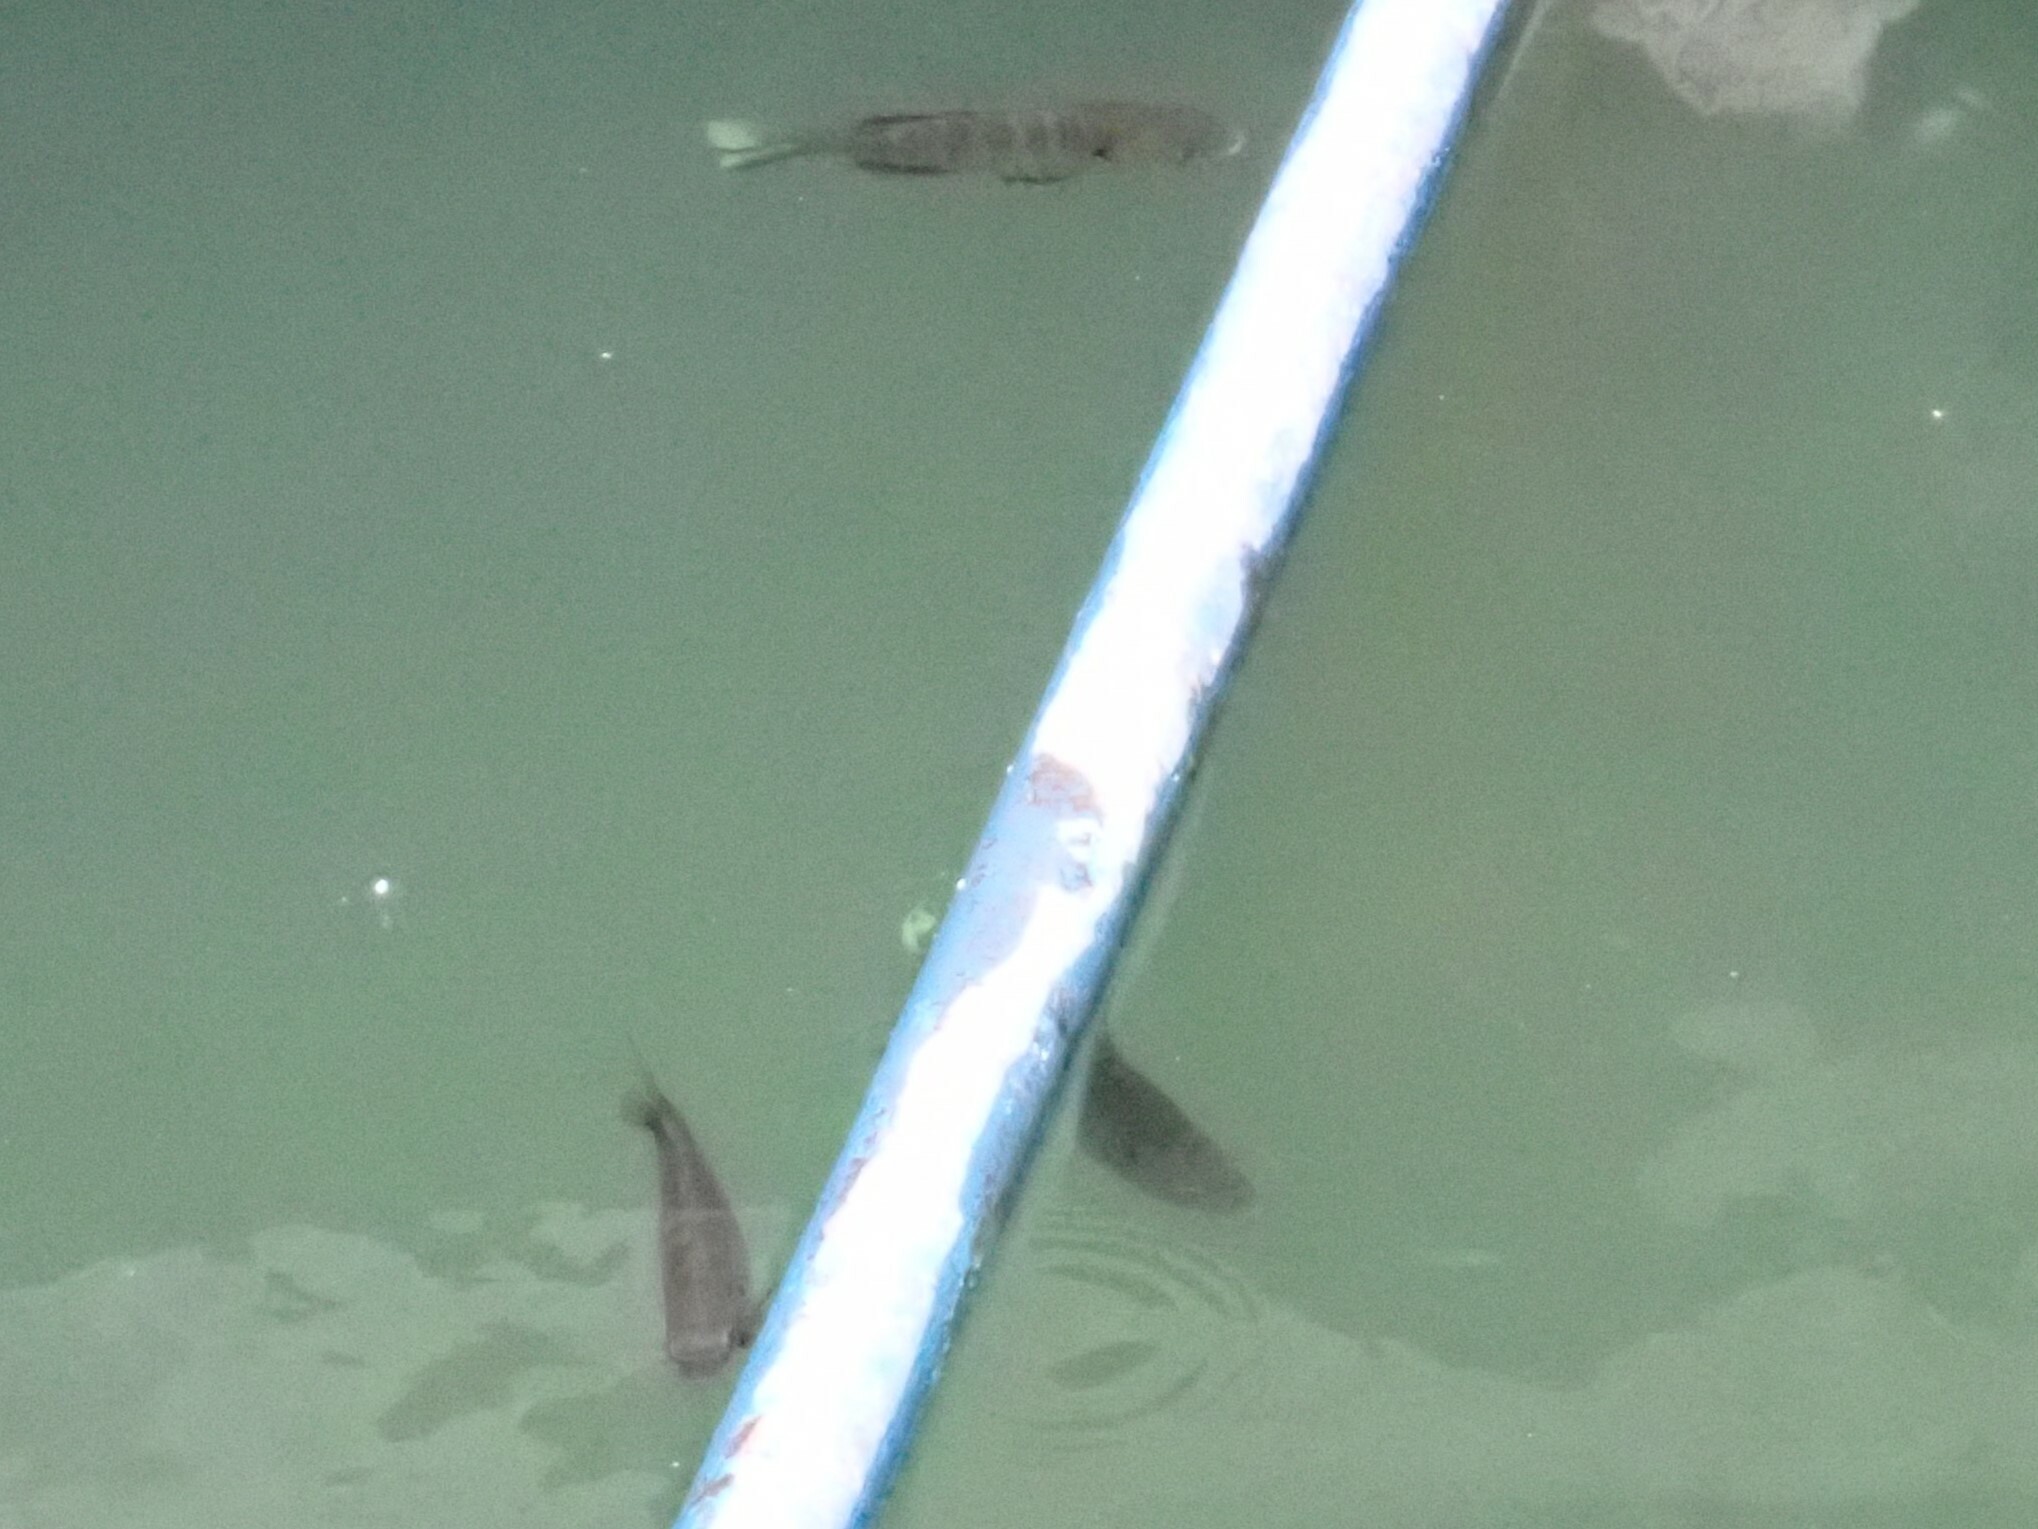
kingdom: Animalia
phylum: Chordata
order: Perciformes
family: Centrarchidae
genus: Lepomis
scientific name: Lepomis macrochirus
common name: Bluegill
